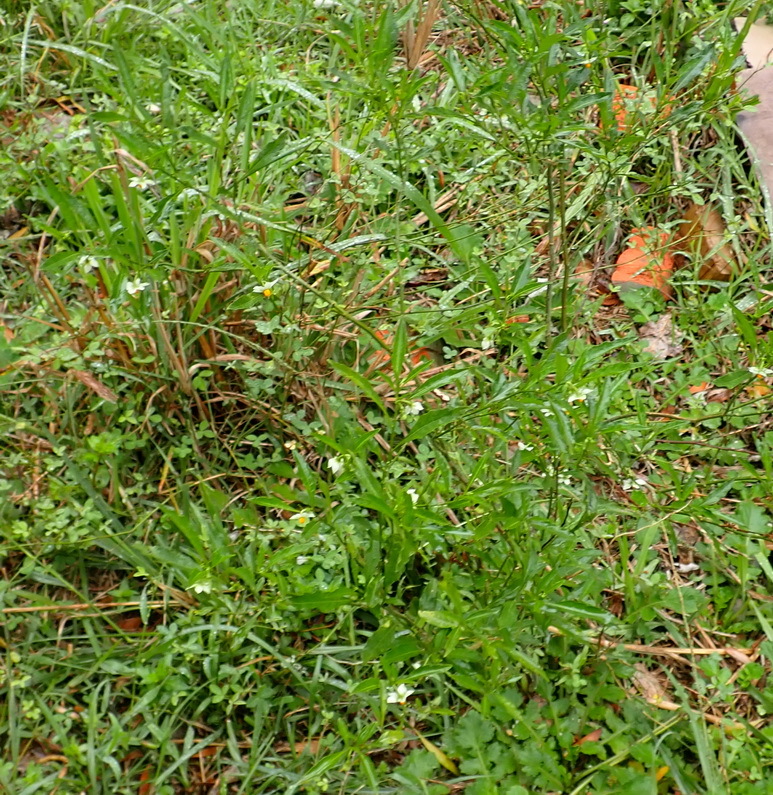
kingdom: Plantae
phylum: Tracheophyta
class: Magnoliopsida
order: Solanales
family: Solanaceae
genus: Solanum
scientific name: Solanum pseudocapsicum
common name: Jerusalem cherry
